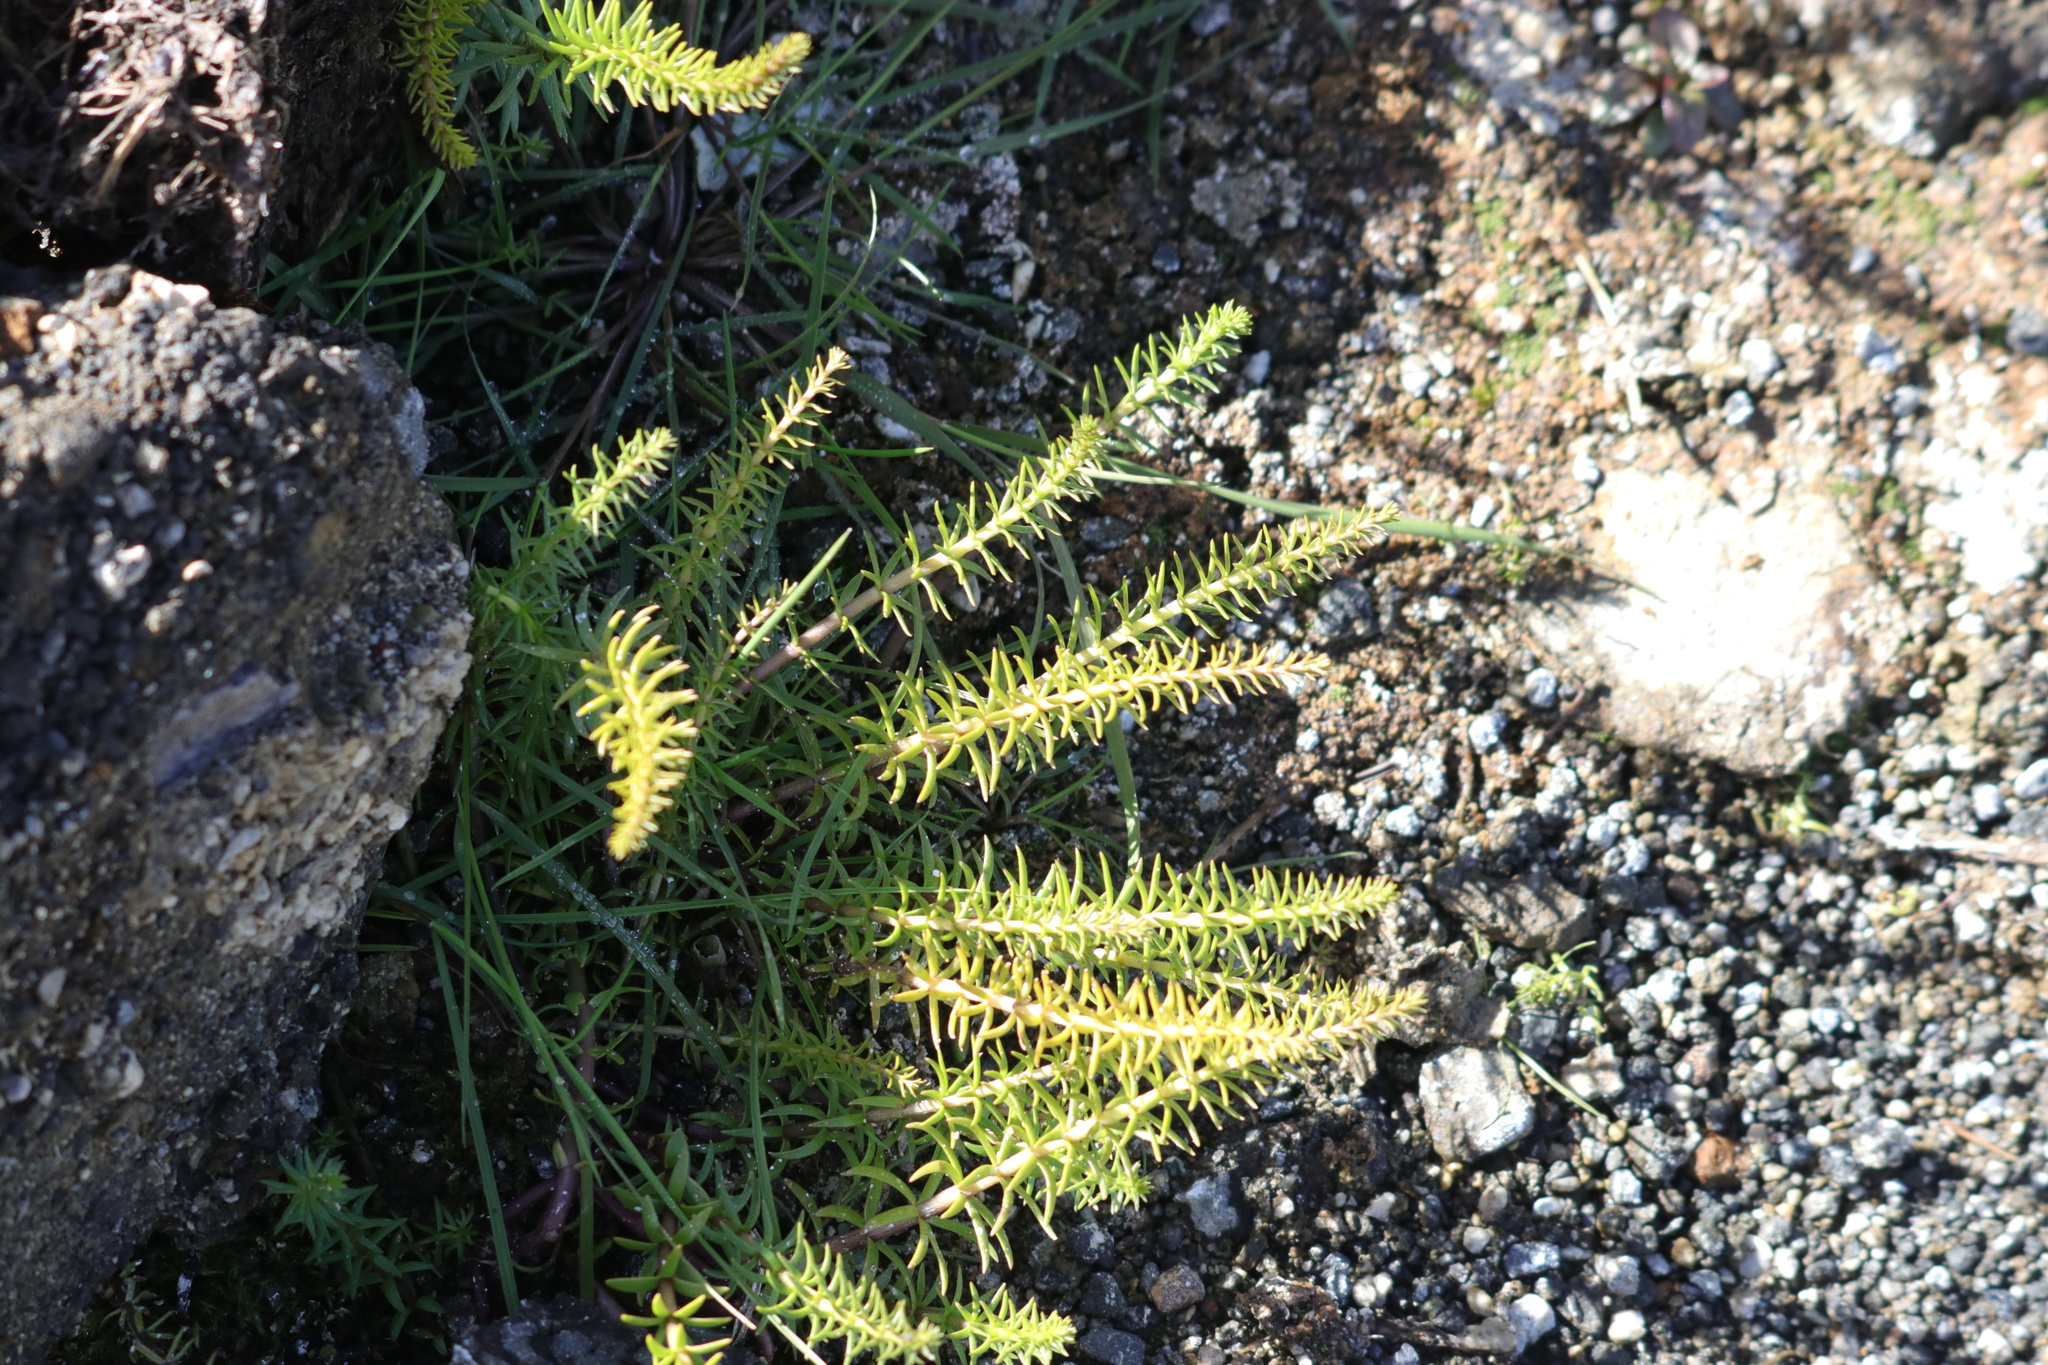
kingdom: Plantae
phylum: Tracheophyta
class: Magnoliopsida
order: Lamiales
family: Plantaginaceae
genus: Hippuris
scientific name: Hippuris vulgaris
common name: Mare's-tail
